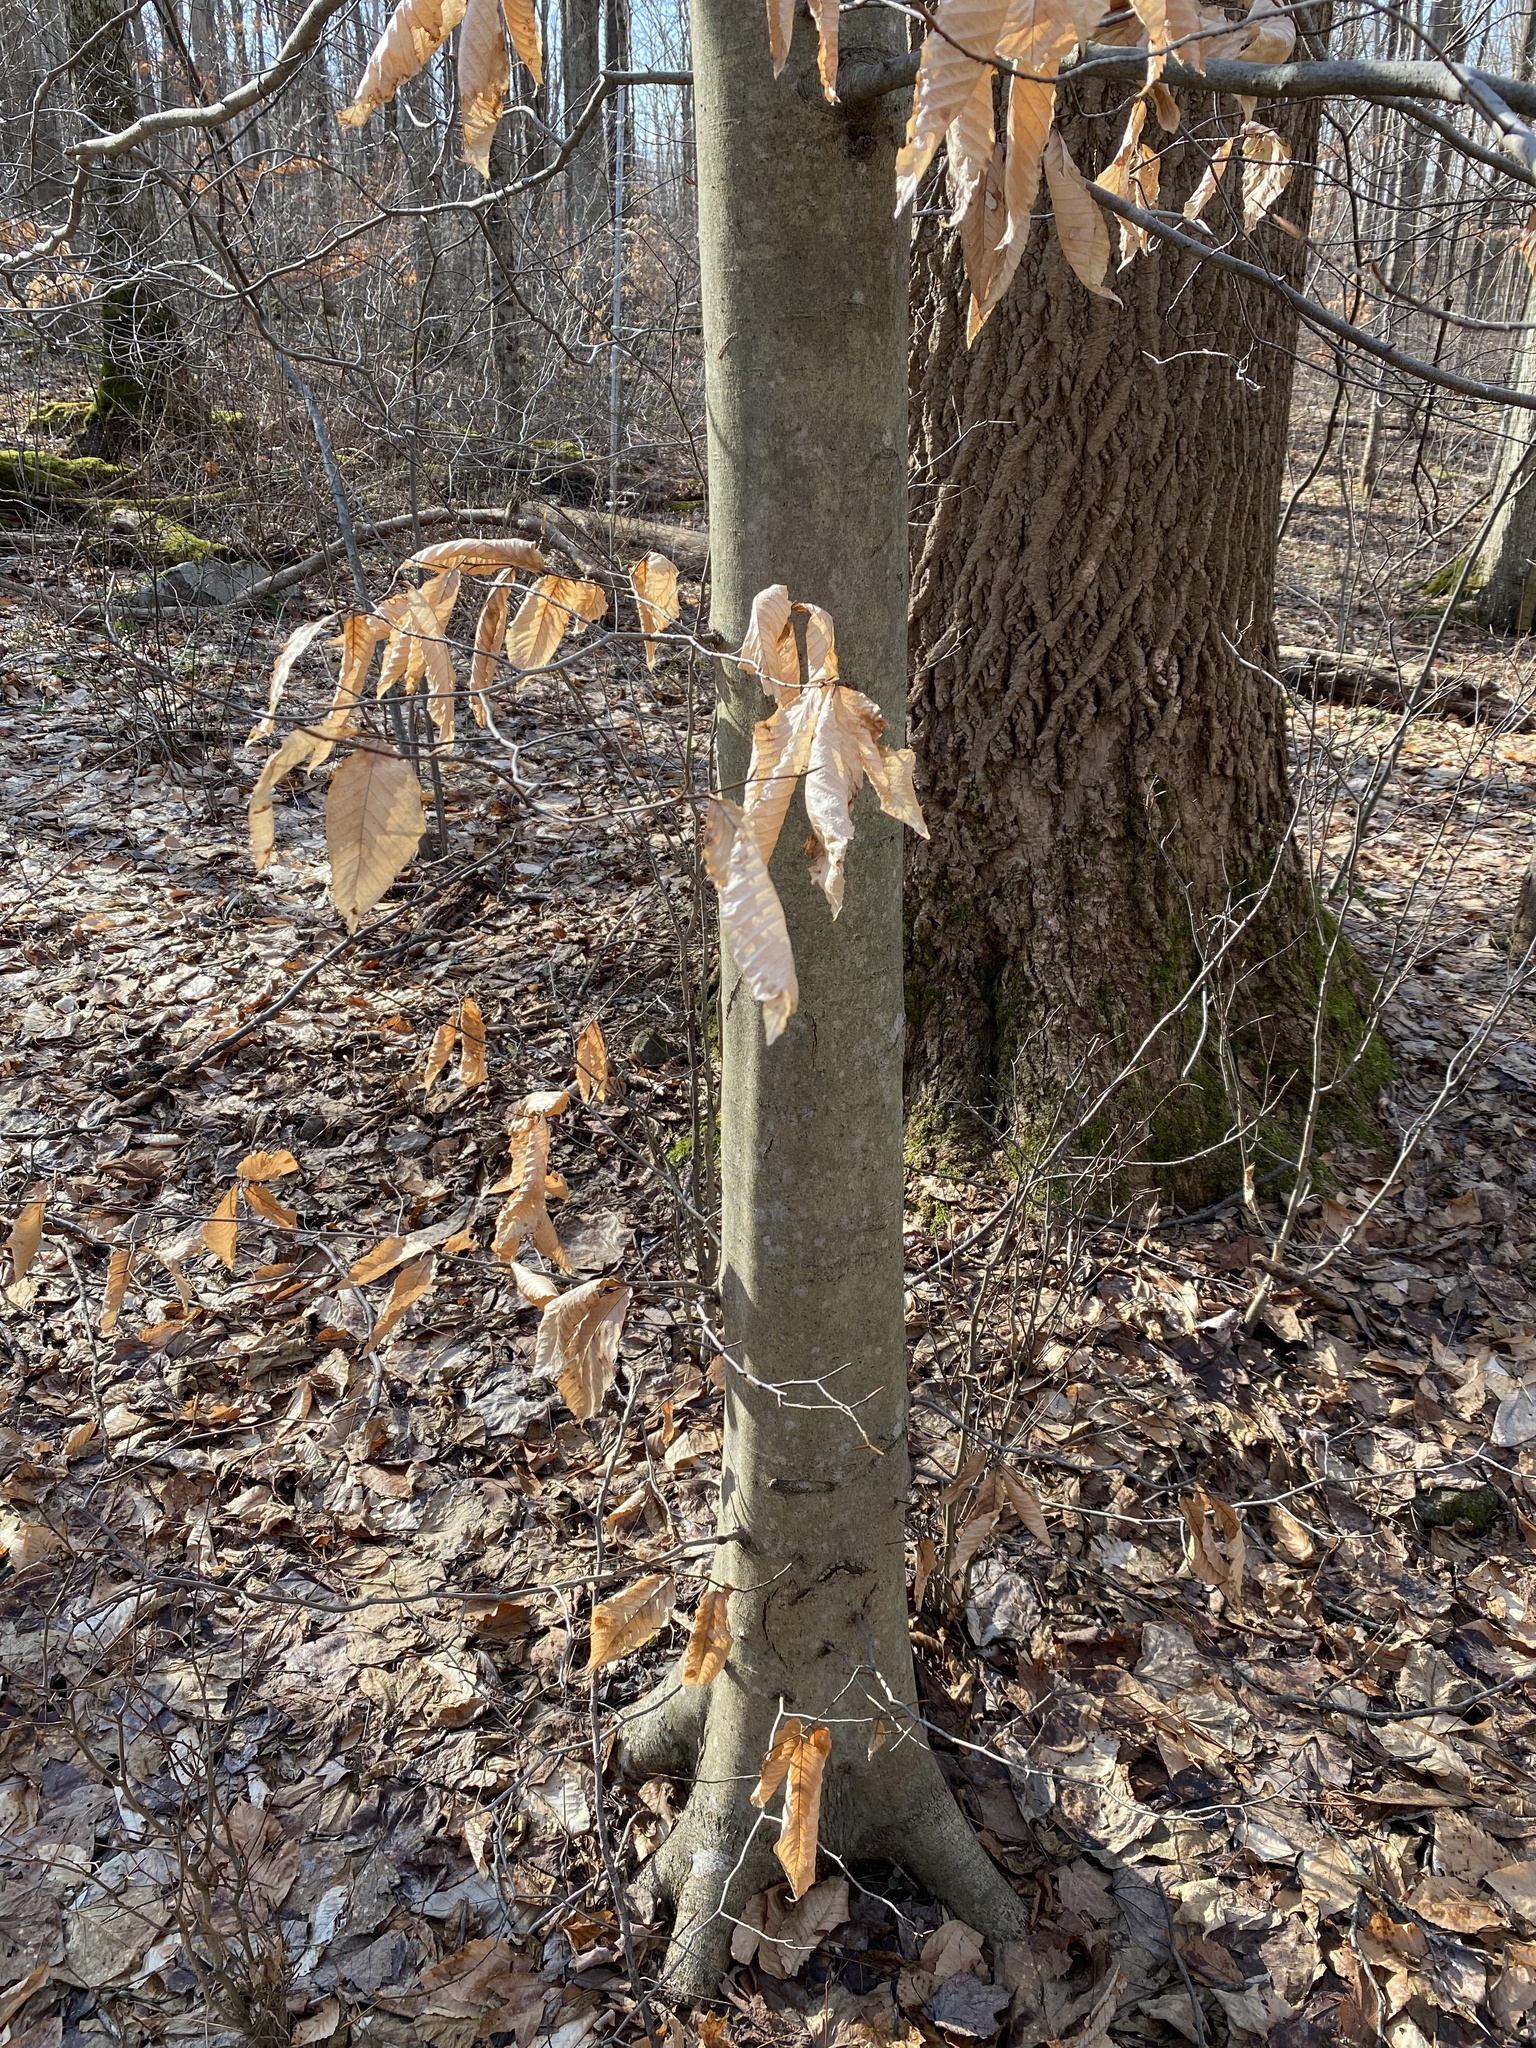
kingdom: Plantae
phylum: Tracheophyta
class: Magnoliopsida
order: Fagales
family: Fagaceae
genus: Fagus
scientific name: Fagus grandifolia
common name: American beech
